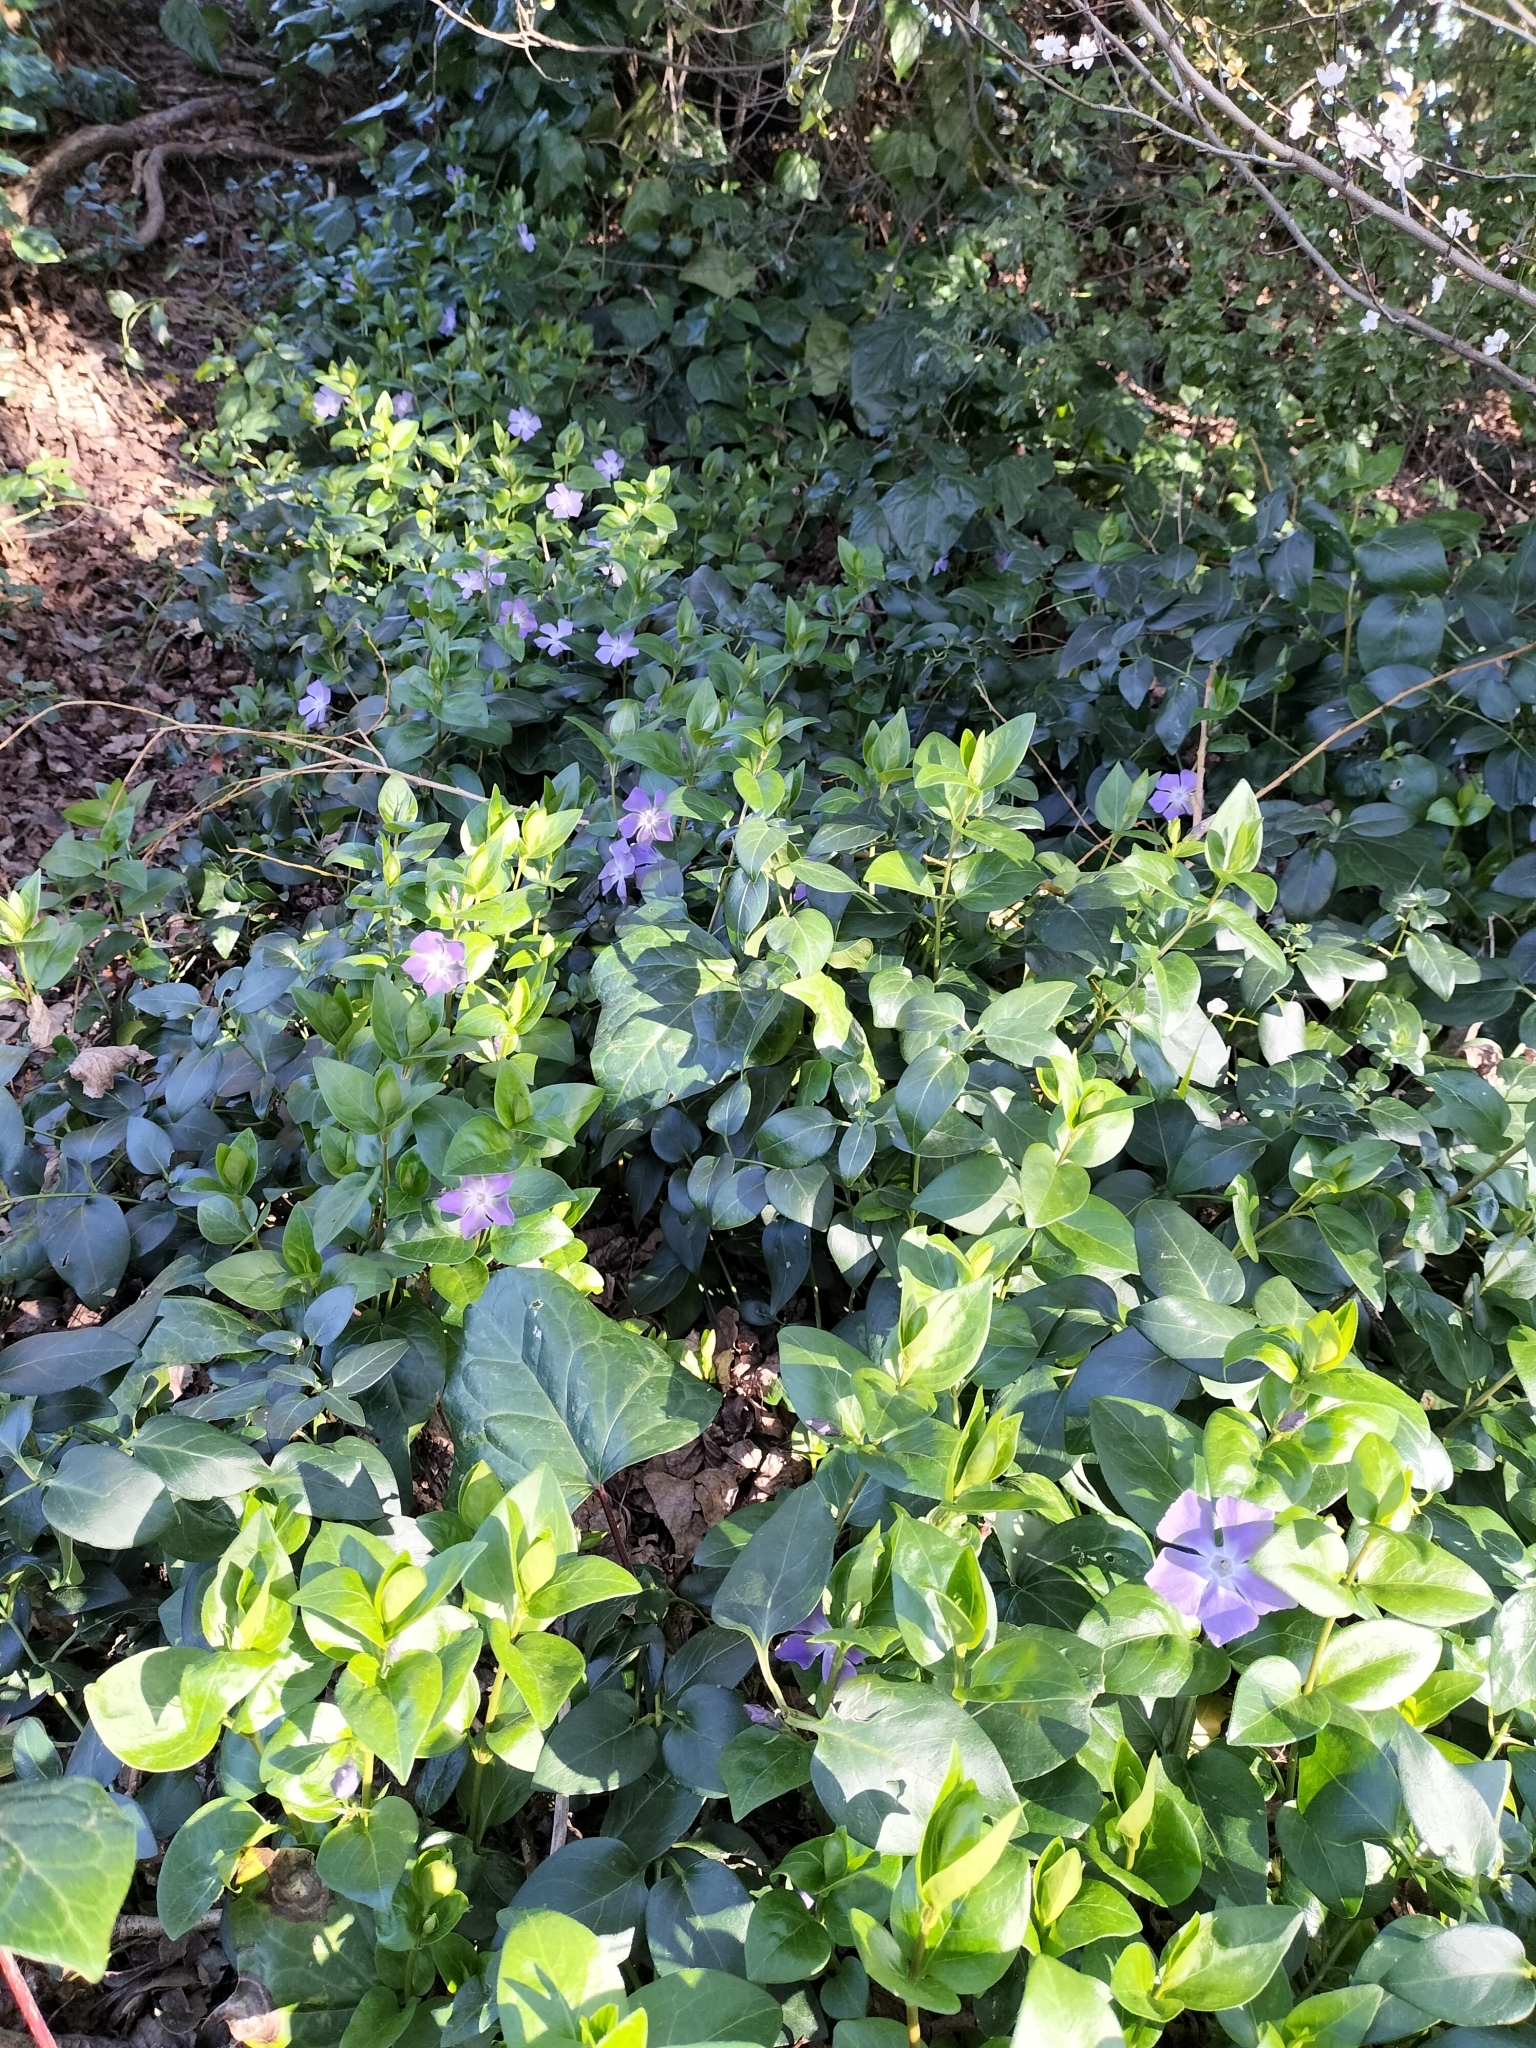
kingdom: Plantae
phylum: Tracheophyta
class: Magnoliopsida
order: Gentianales
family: Apocynaceae
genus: Vinca
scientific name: Vinca major
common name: Greater periwinkle
